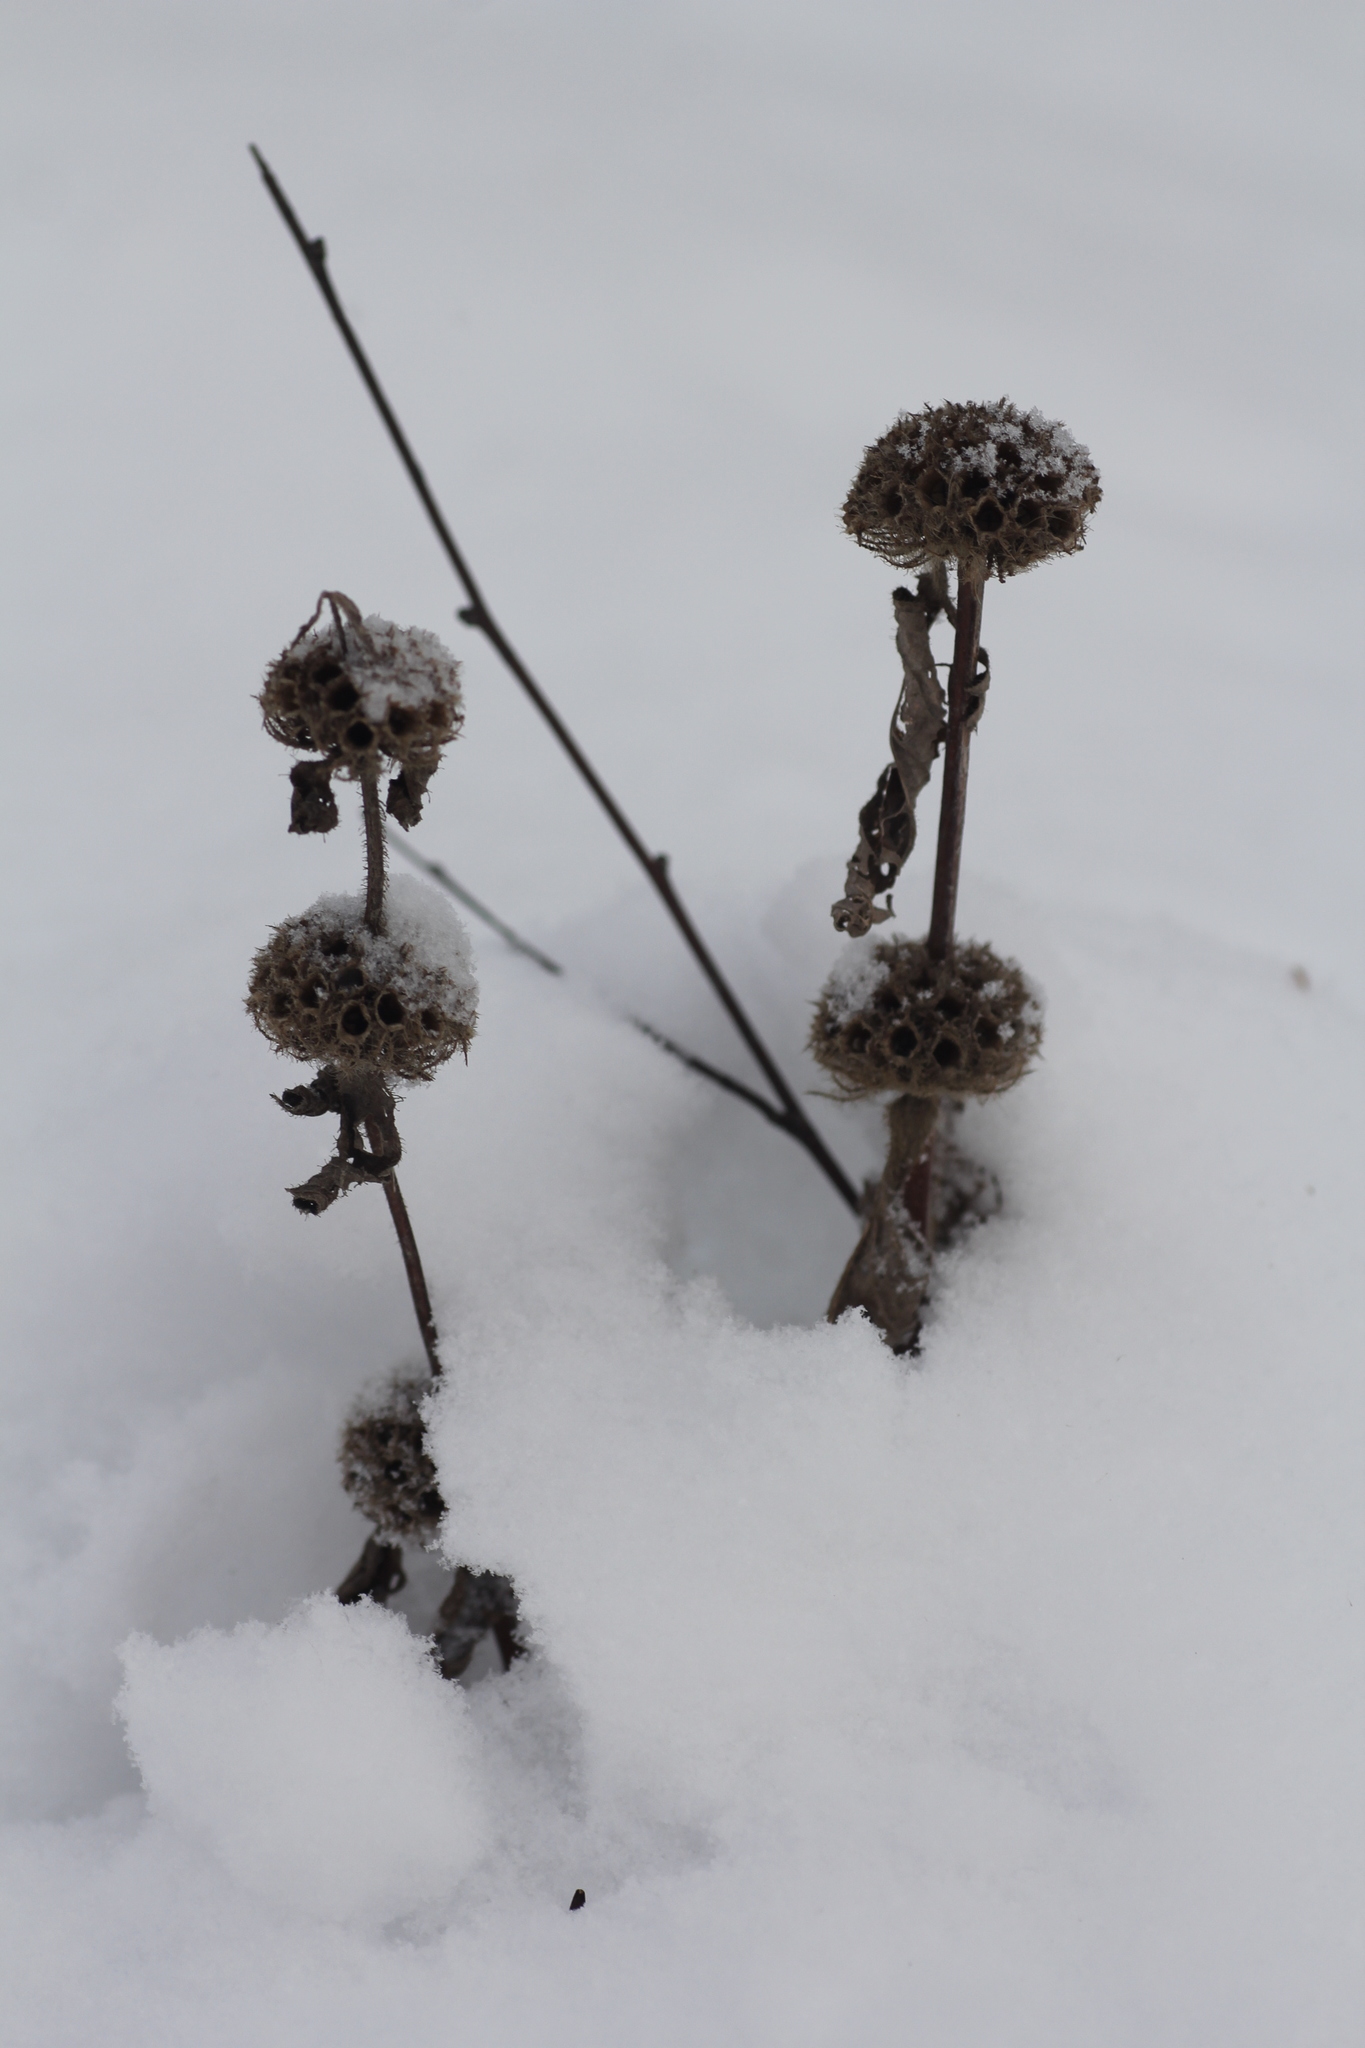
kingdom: Plantae
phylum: Tracheophyta
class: Magnoliopsida
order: Lamiales
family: Lamiaceae
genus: Phlomoides
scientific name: Phlomoides tuberosa
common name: Tuberous jerusalem sage
